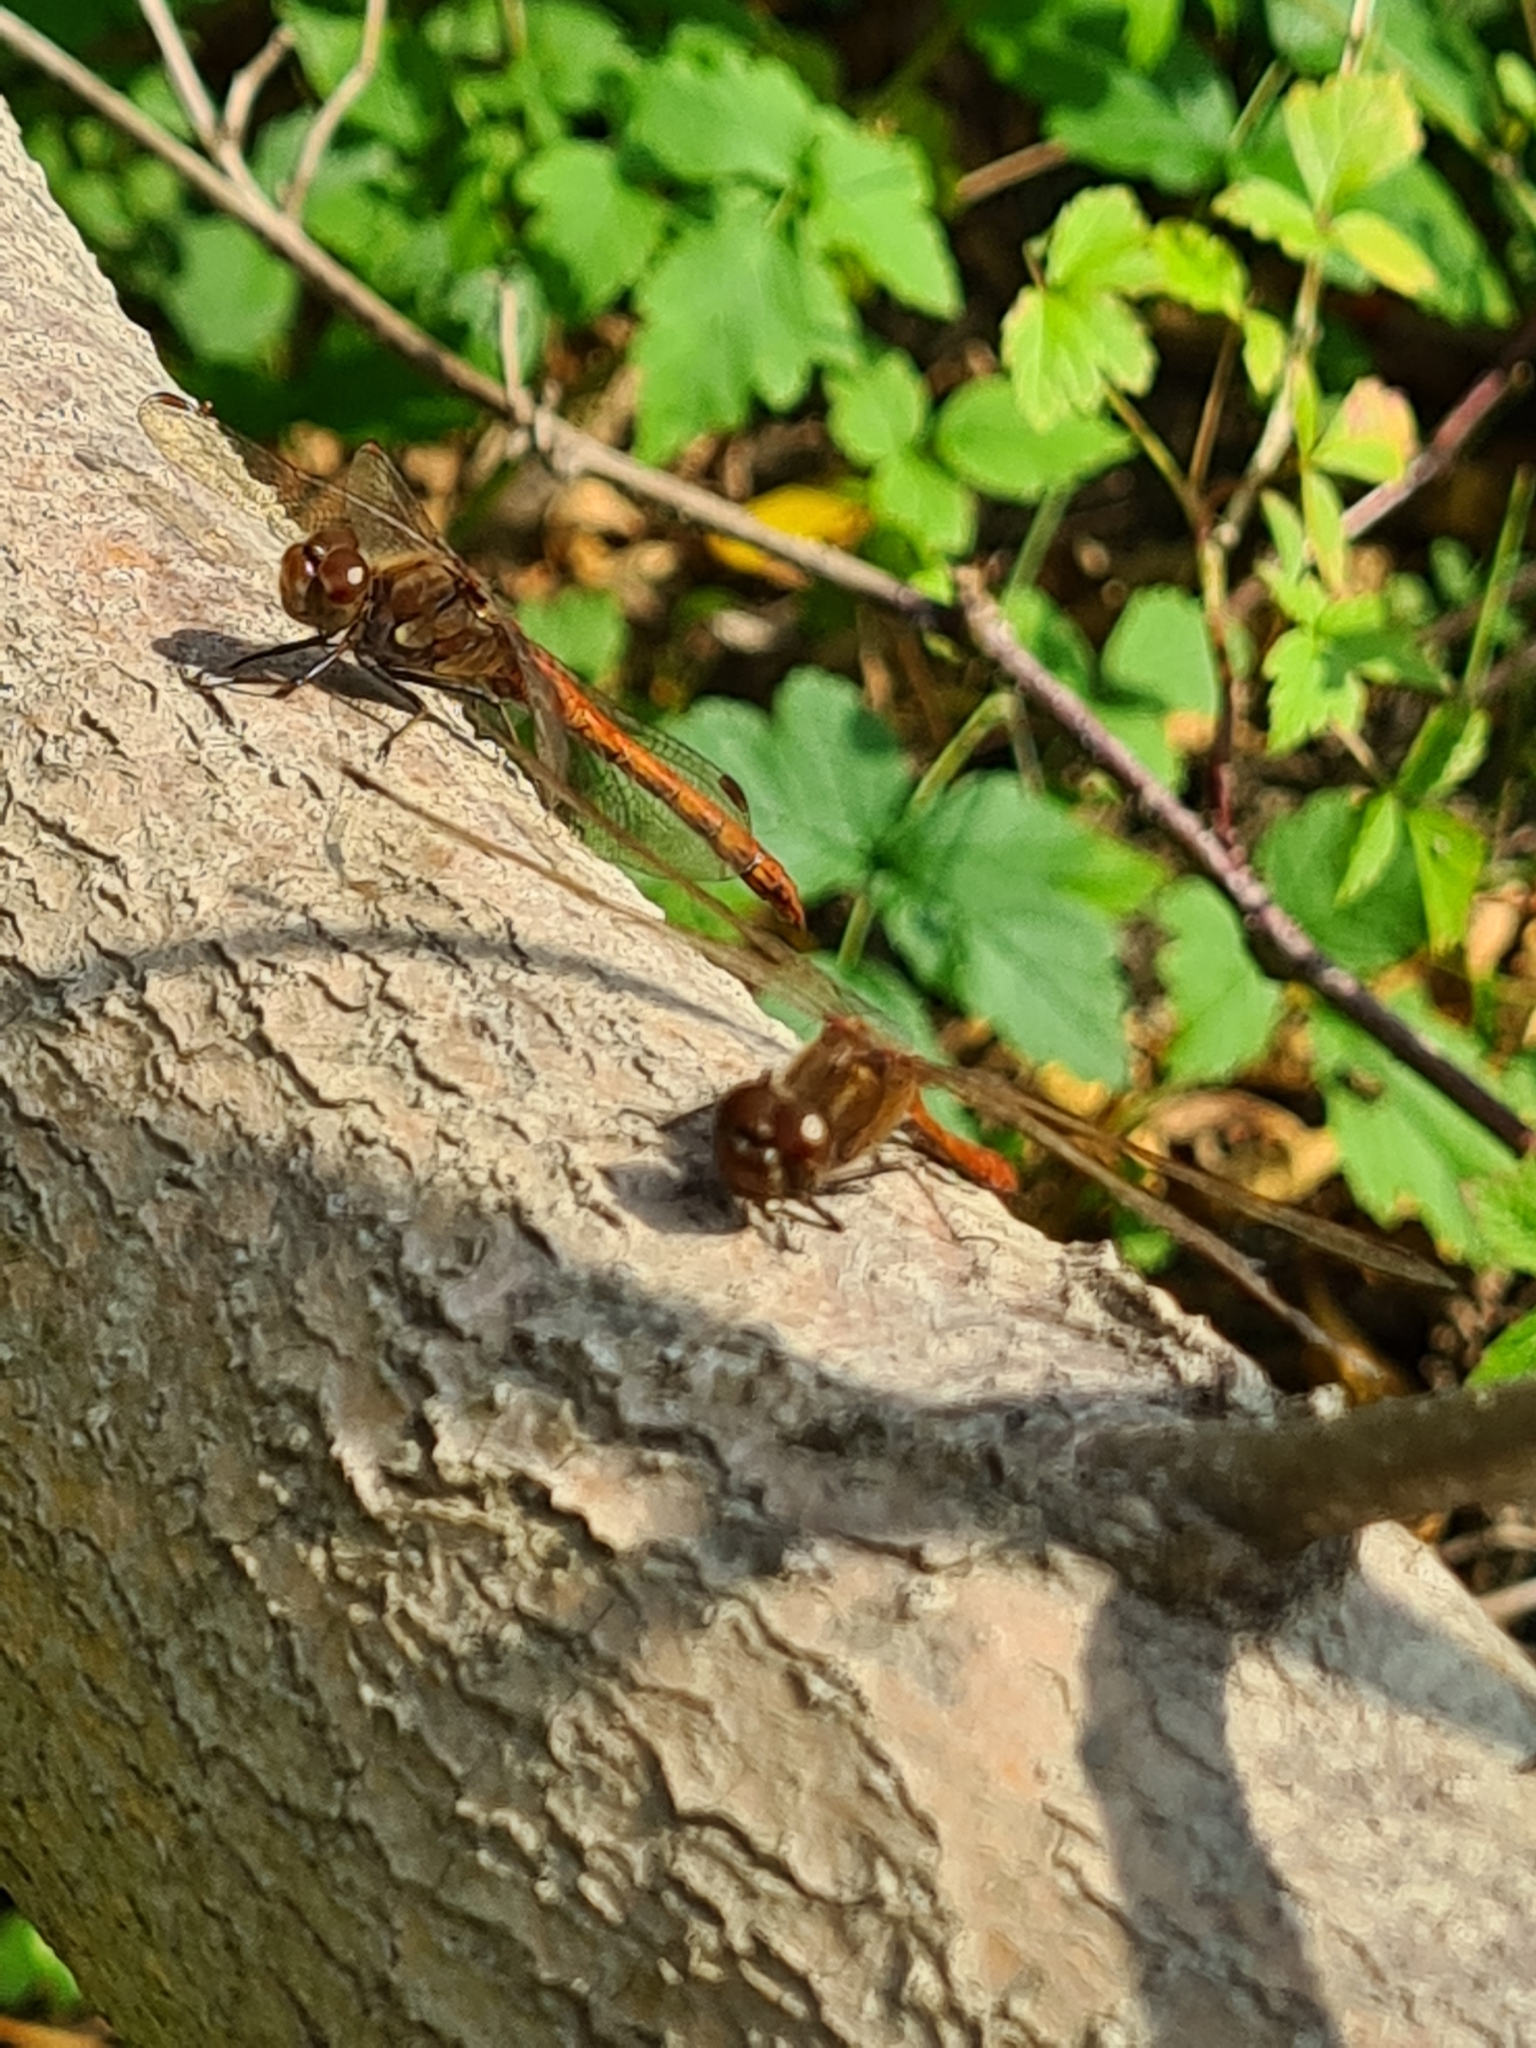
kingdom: Animalia
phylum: Arthropoda
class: Insecta
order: Odonata
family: Libellulidae
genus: Sympetrum
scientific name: Sympetrum striolatum
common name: Common darter
